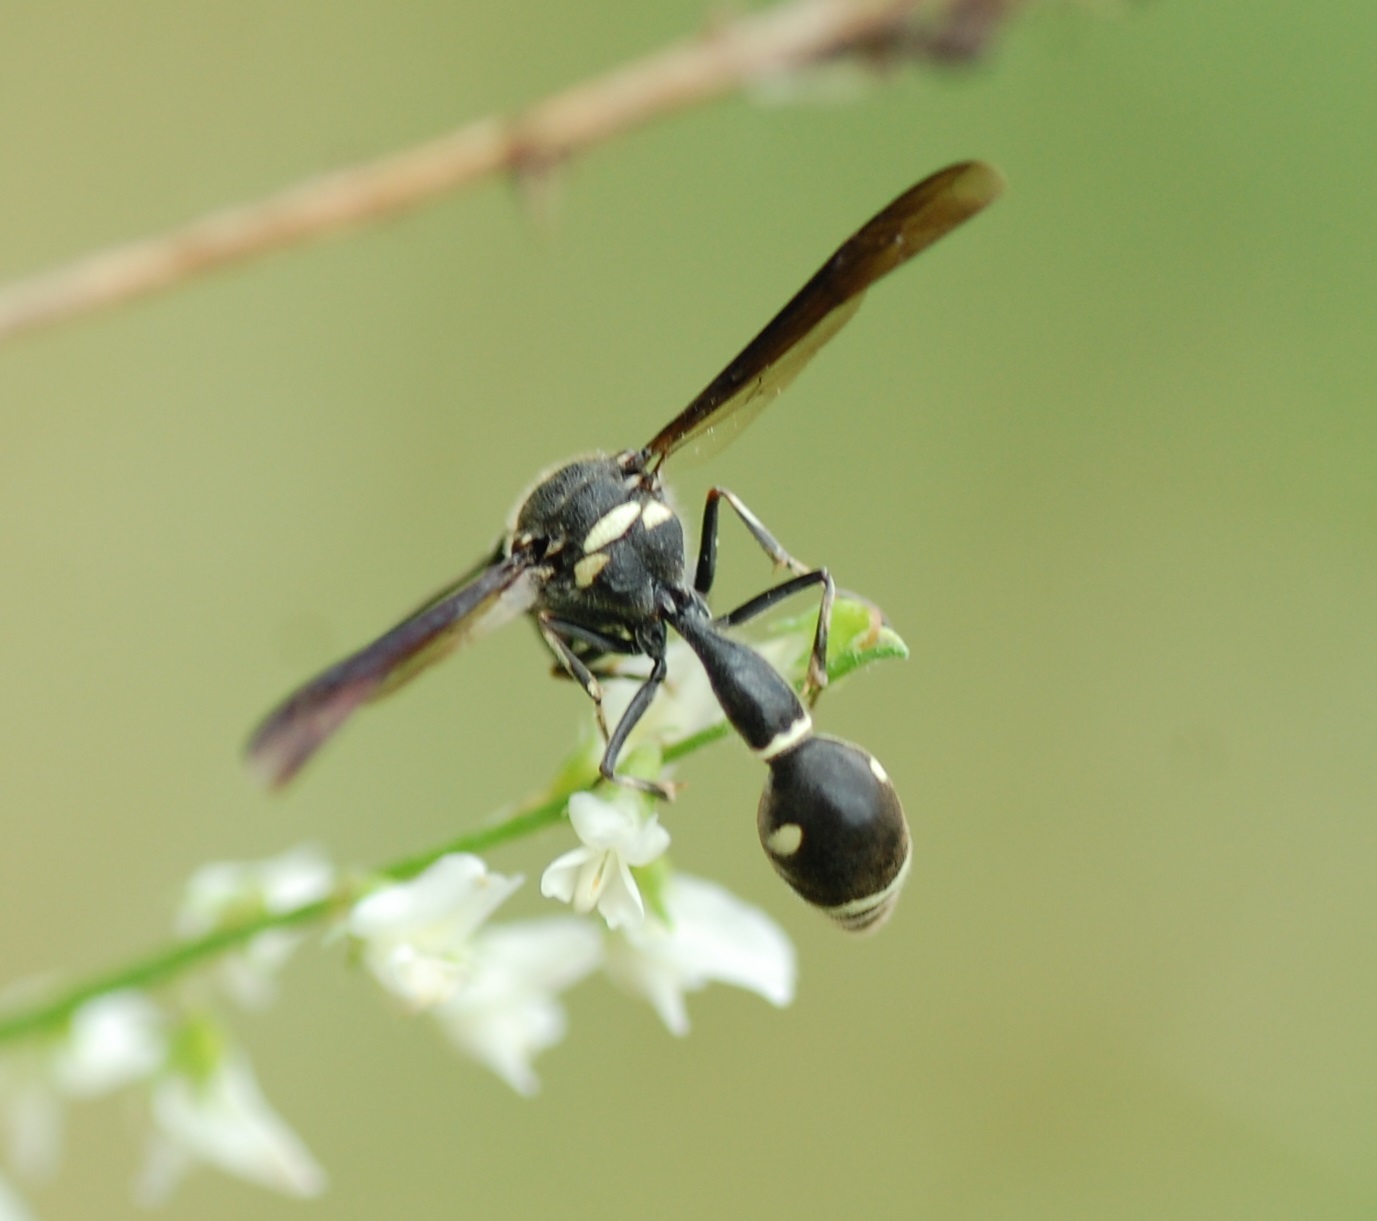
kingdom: Animalia
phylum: Arthropoda
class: Insecta
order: Hymenoptera
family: Vespidae
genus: Eumenes
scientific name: Eumenes fraternus
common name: Fraternal potter wasp
